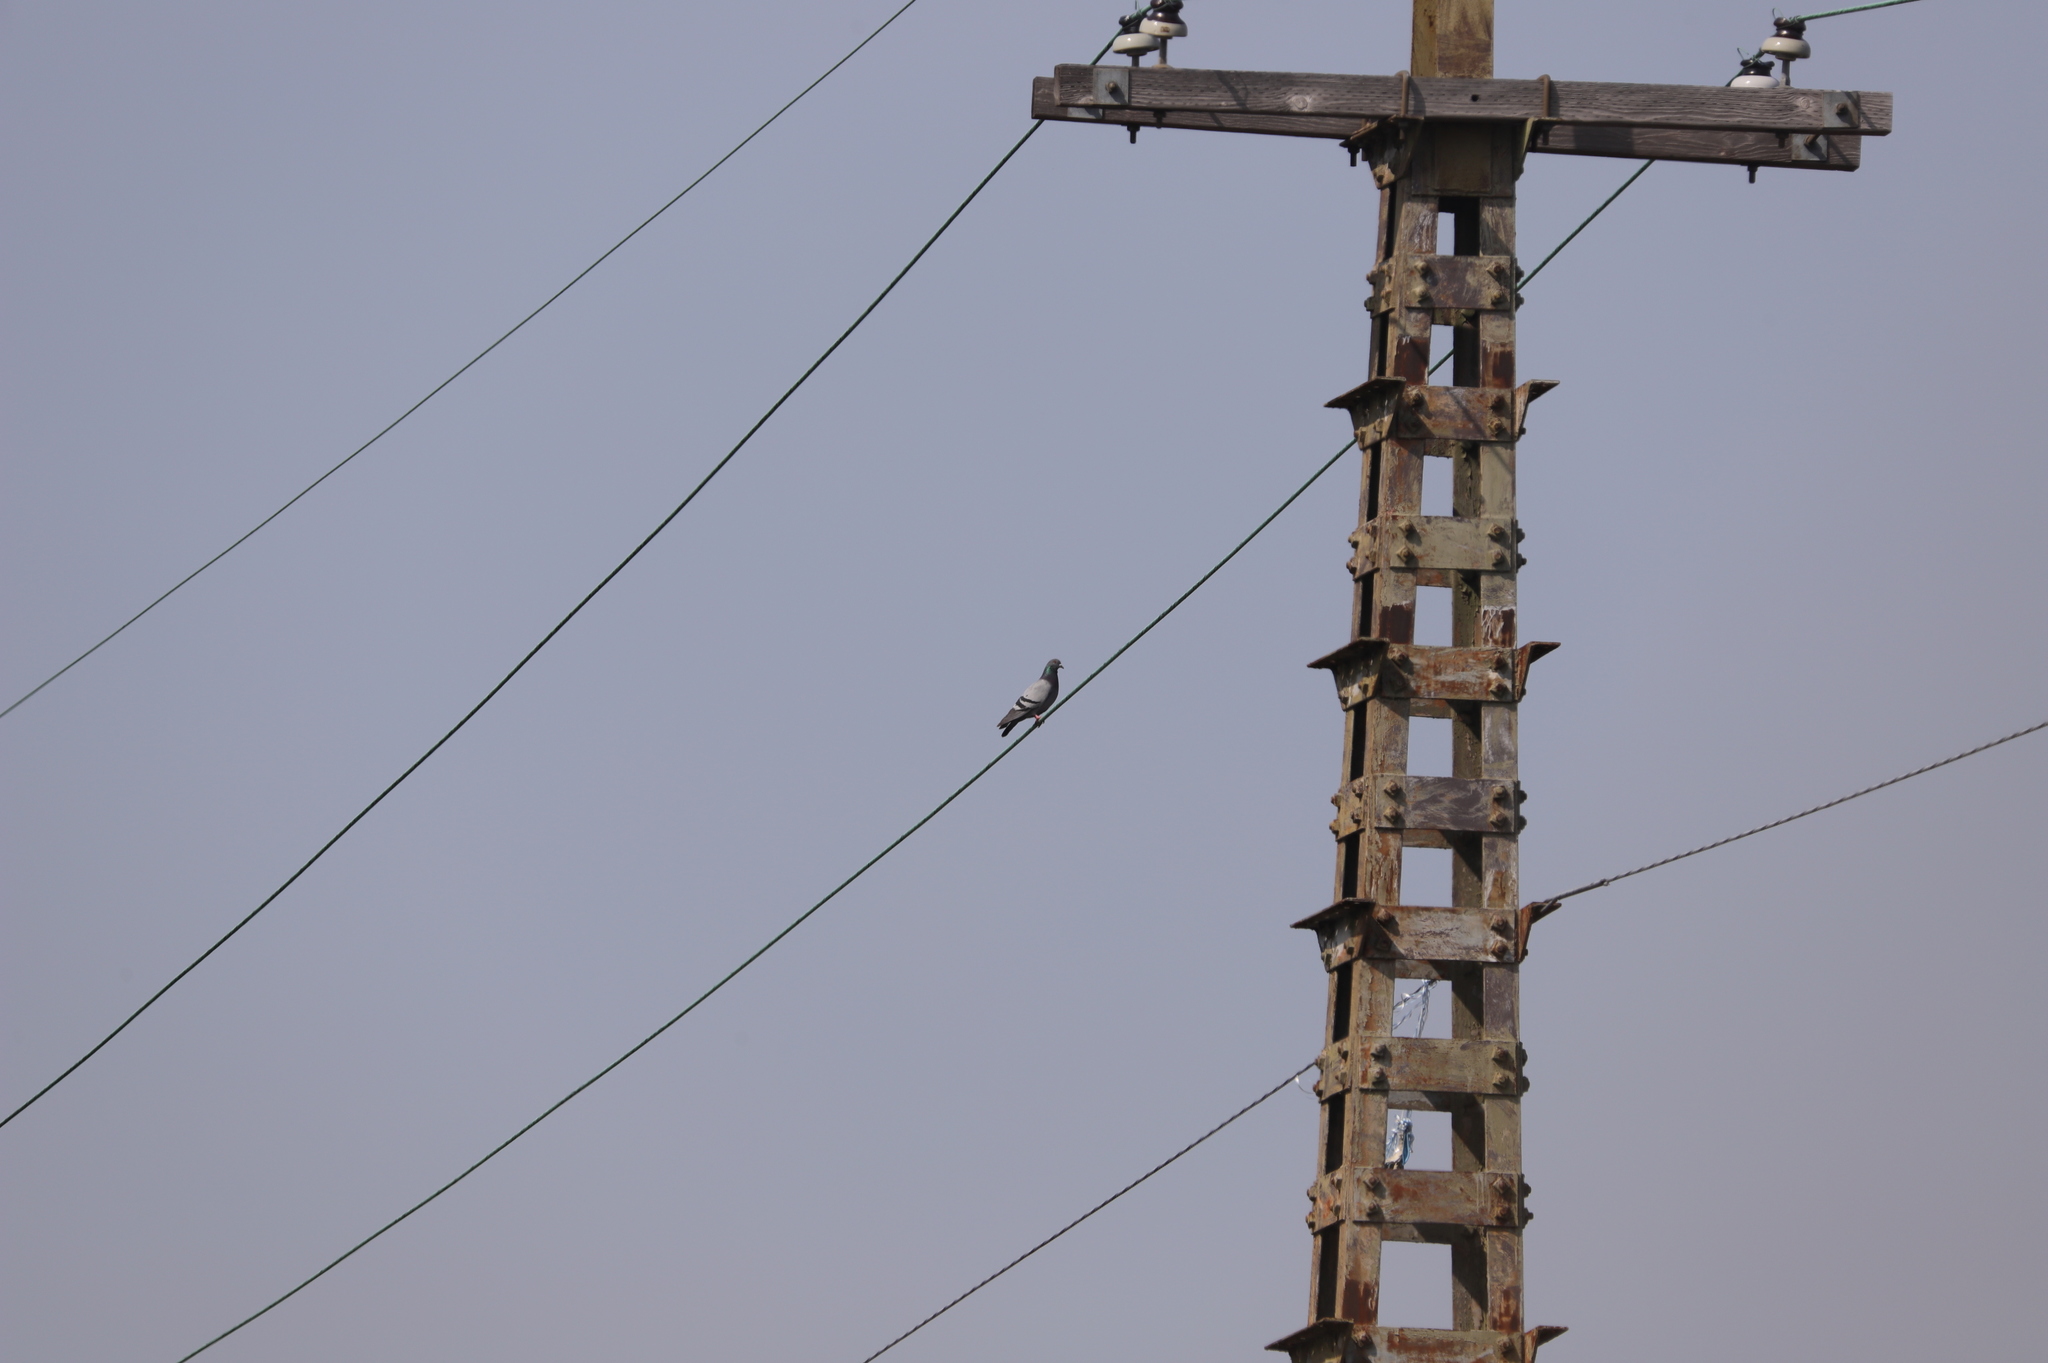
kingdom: Animalia
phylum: Chordata
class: Aves
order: Columbiformes
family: Columbidae
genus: Columba
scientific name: Columba livia
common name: Rock pigeon
